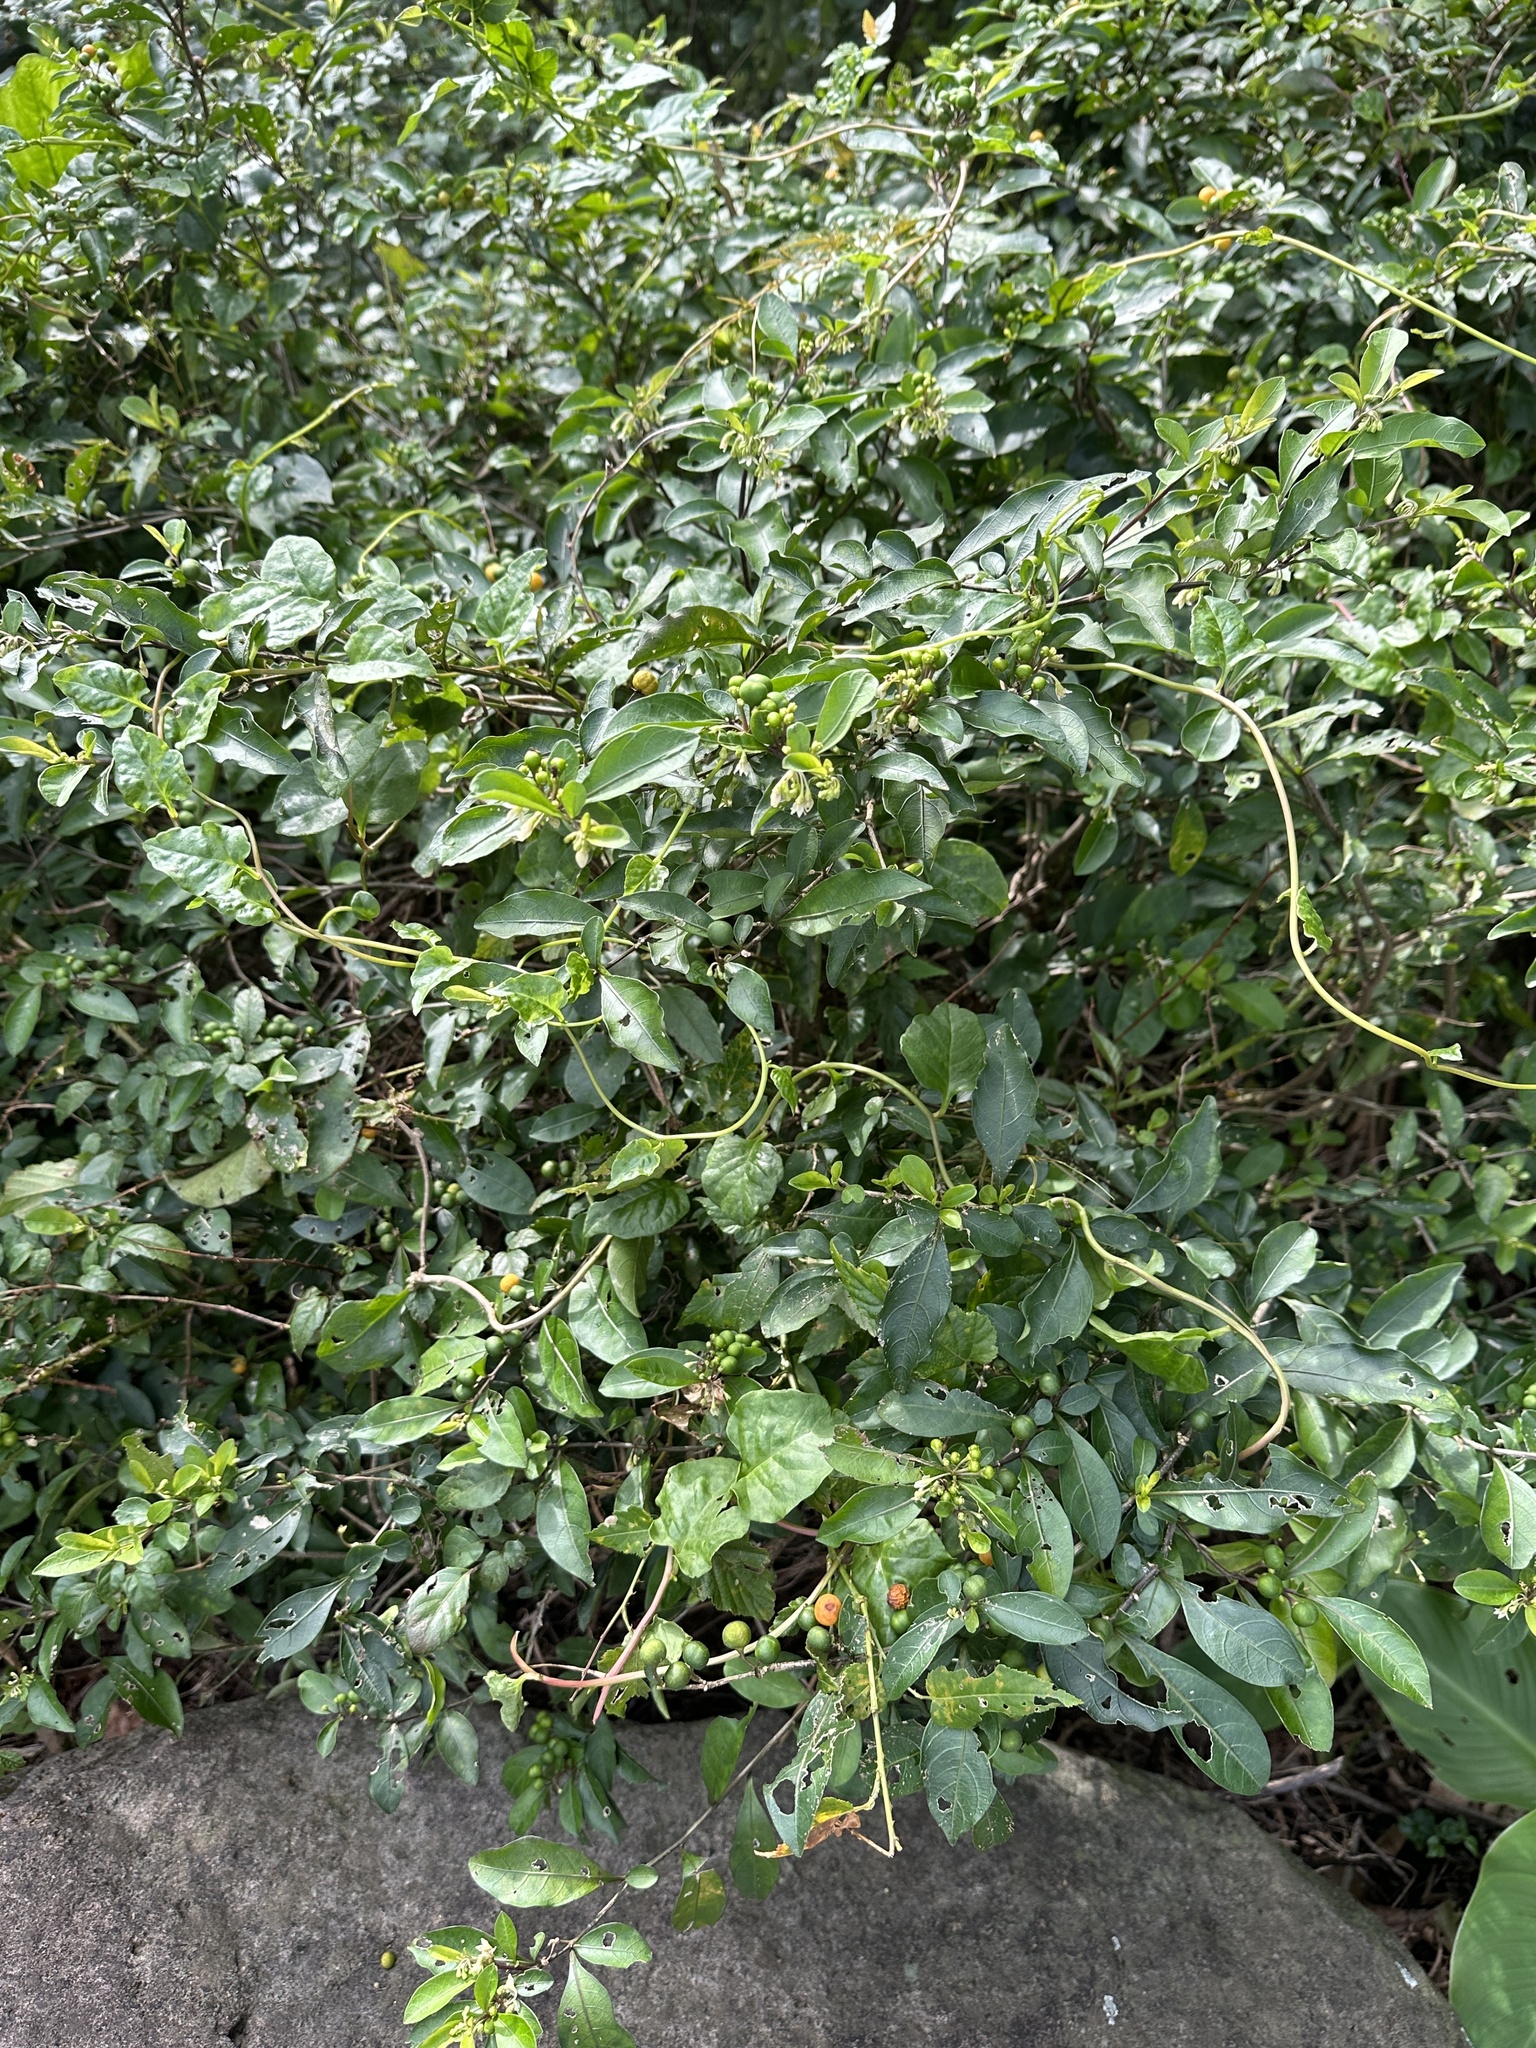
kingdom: Plantae
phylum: Tracheophyta
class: Magnoliopsida
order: Solanales
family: Solanaceae
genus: Solanum
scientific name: Solanum diphyllum
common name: Twoleaf nightshade
